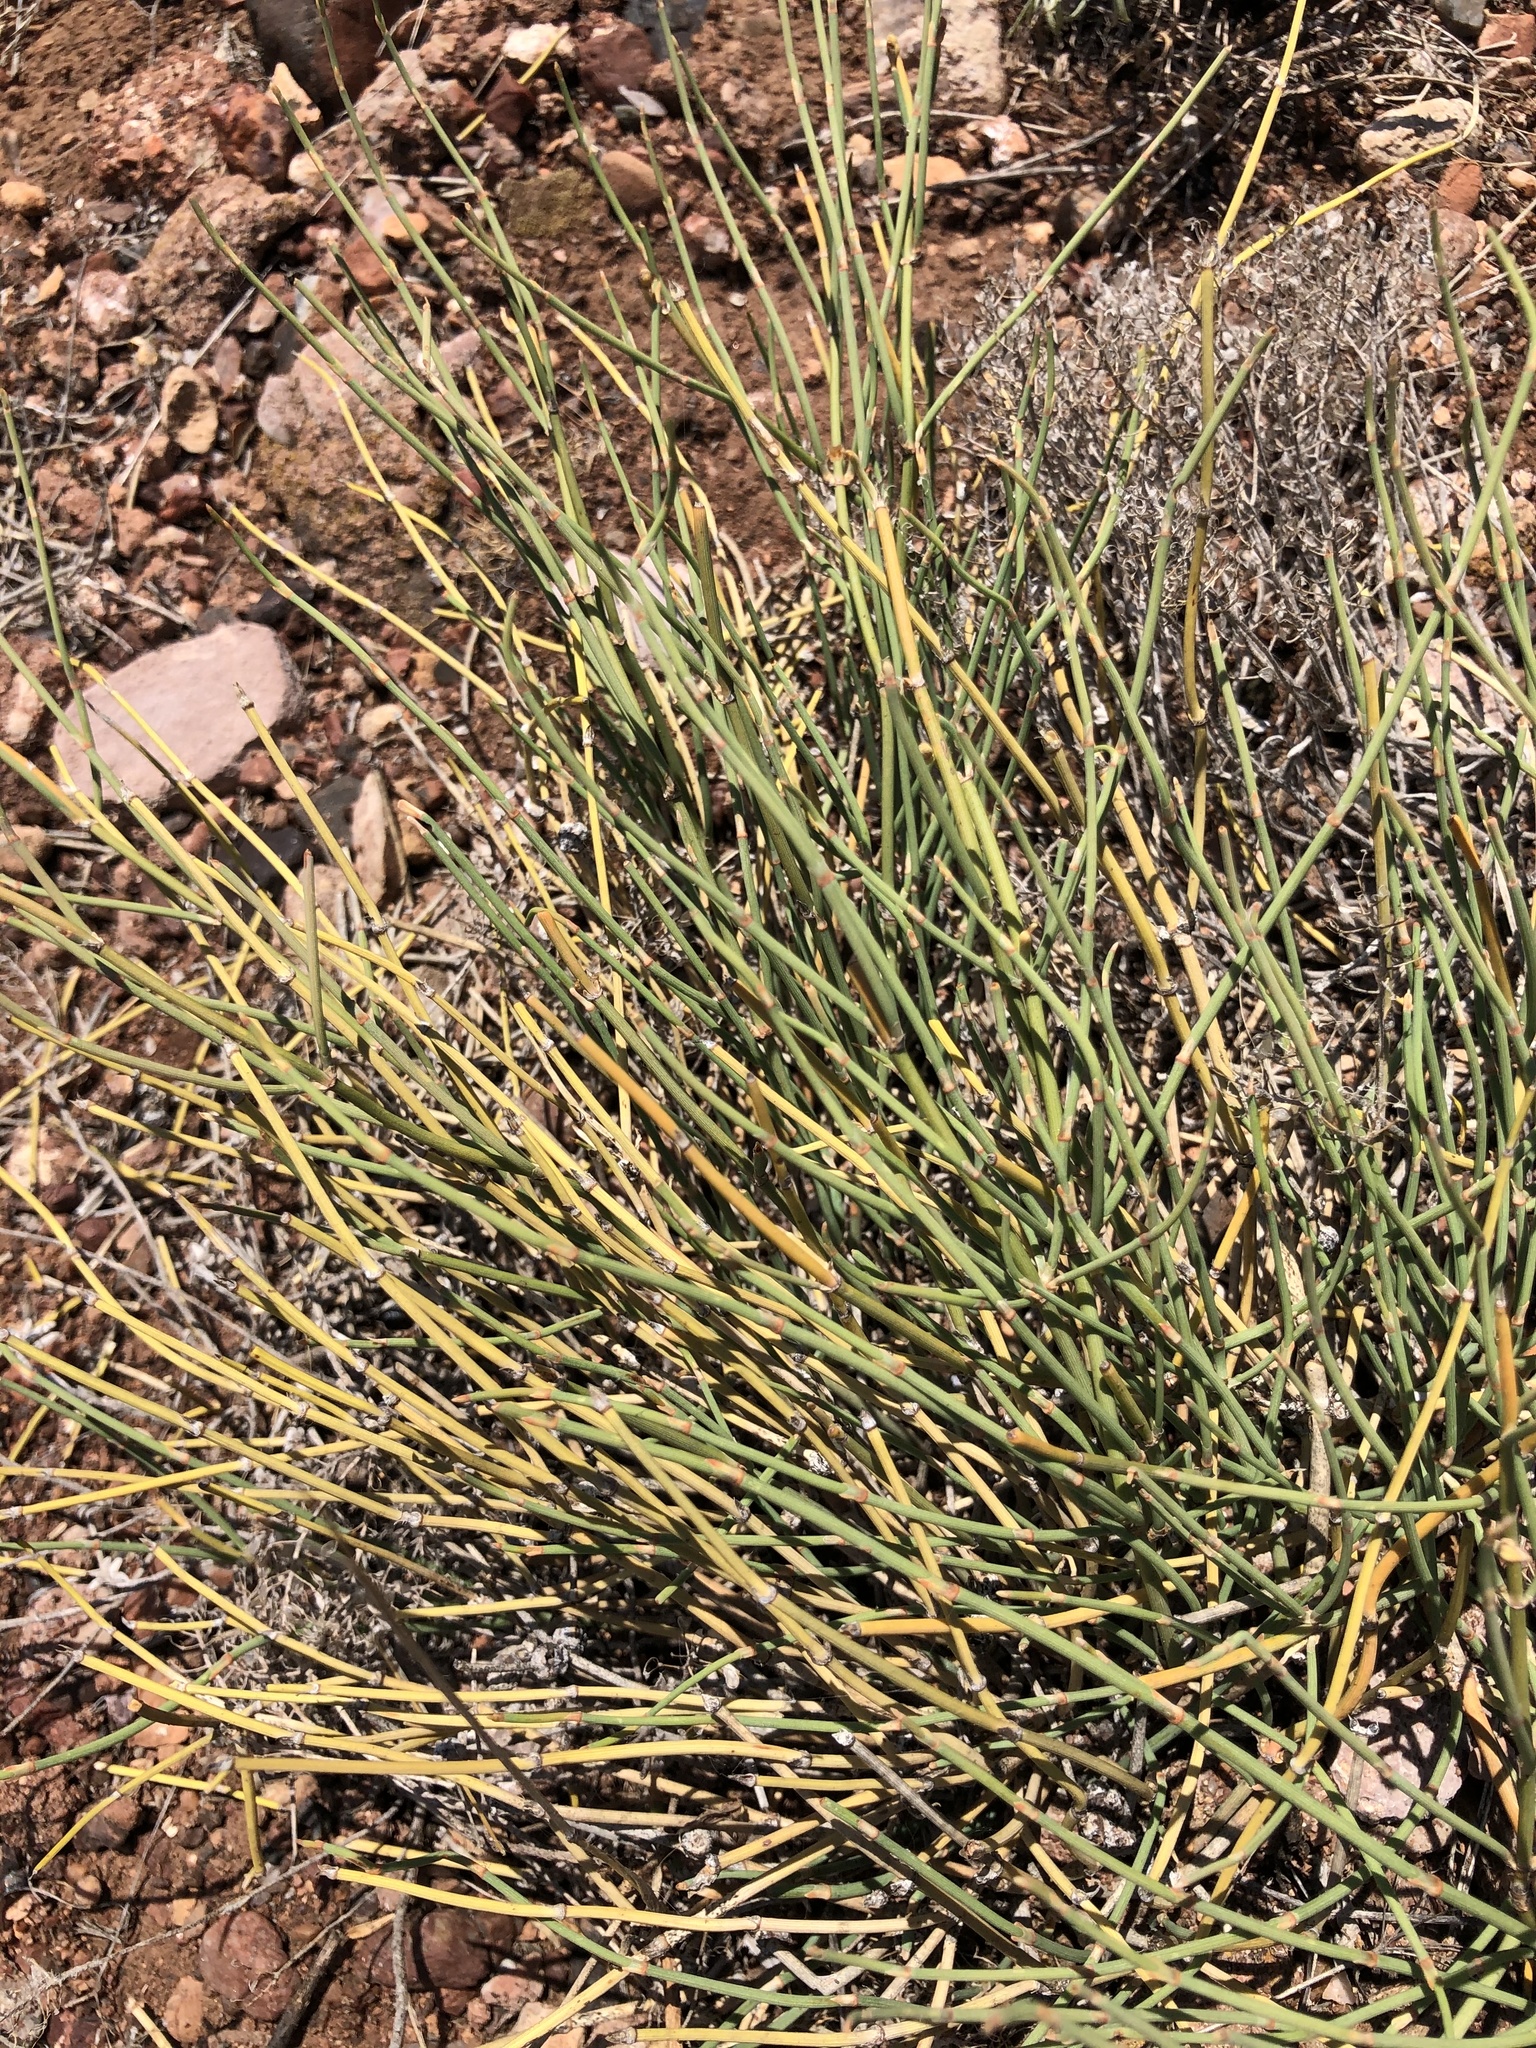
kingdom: Plantae
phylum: Tracheophyta
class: Gnetopsida
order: Ephedrales
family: Ephedraceae
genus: Ephedra
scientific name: Ephedra distachya
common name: Sea grape
